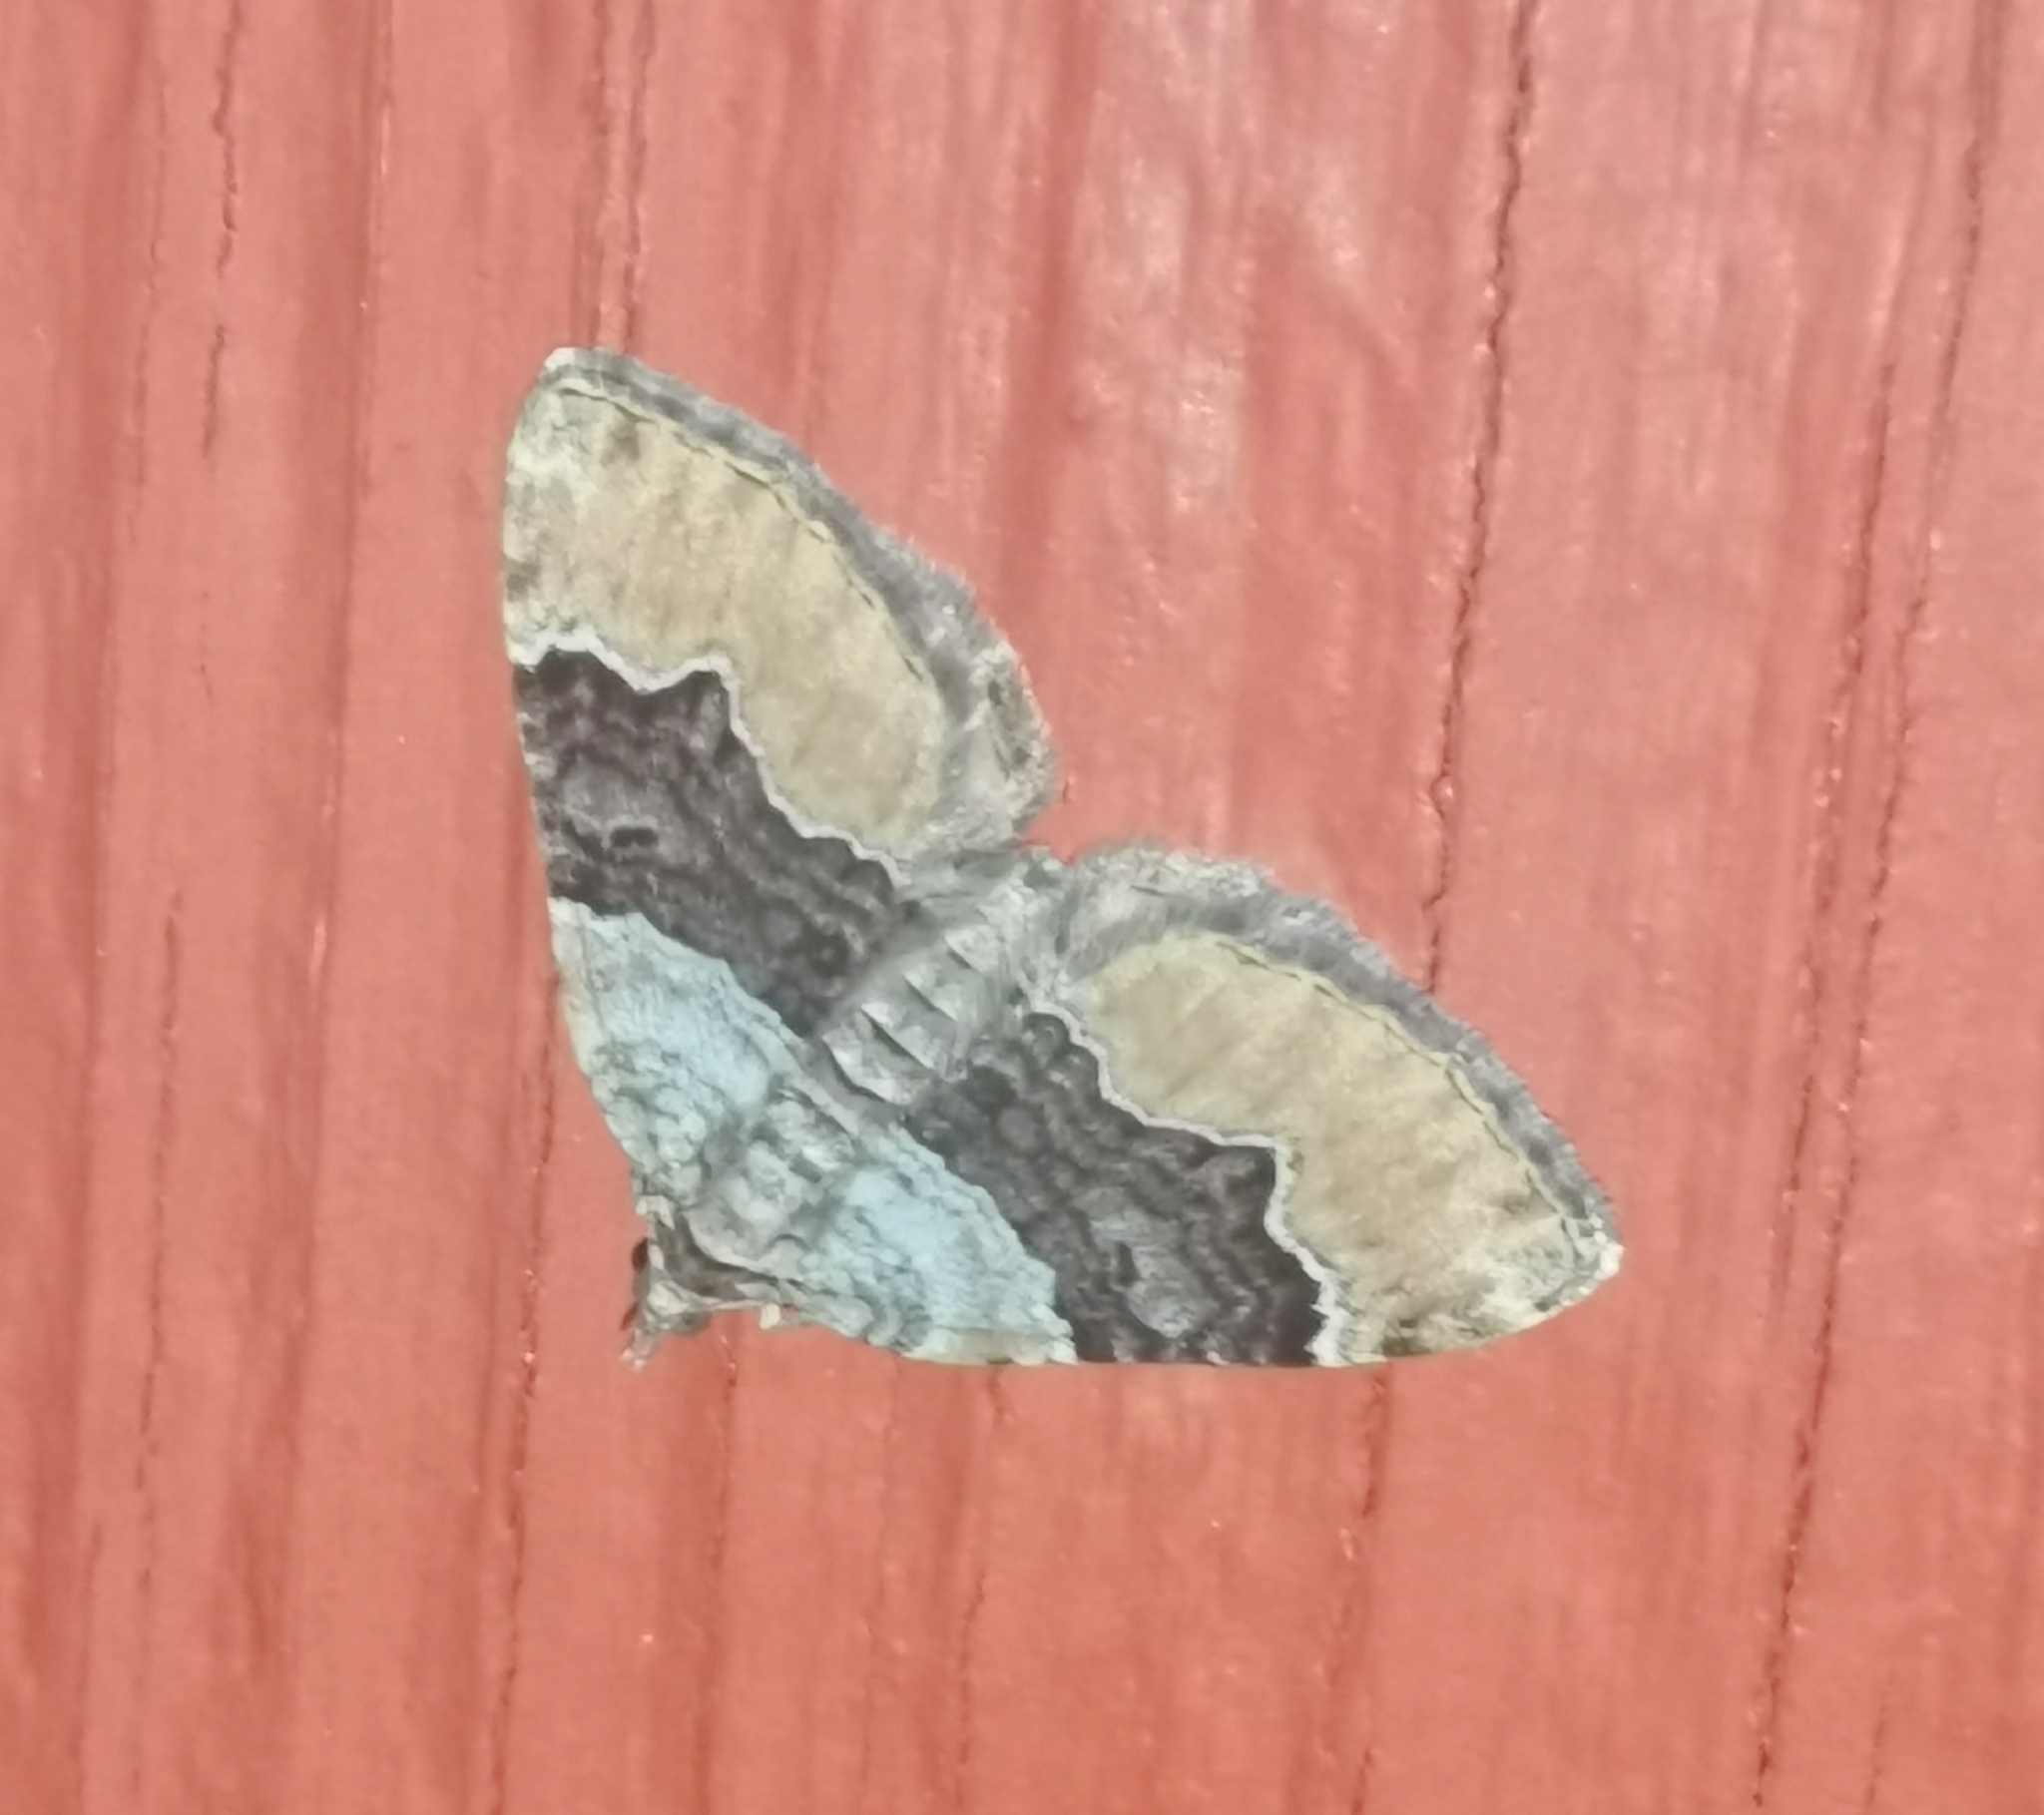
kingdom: Animalia
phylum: Arthropoda
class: Insecta
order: Lepidoptera
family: Geometridae
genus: Xanthorhoe
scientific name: Xanthorhoe quadrifasiata
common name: Large twin-spot carpet
